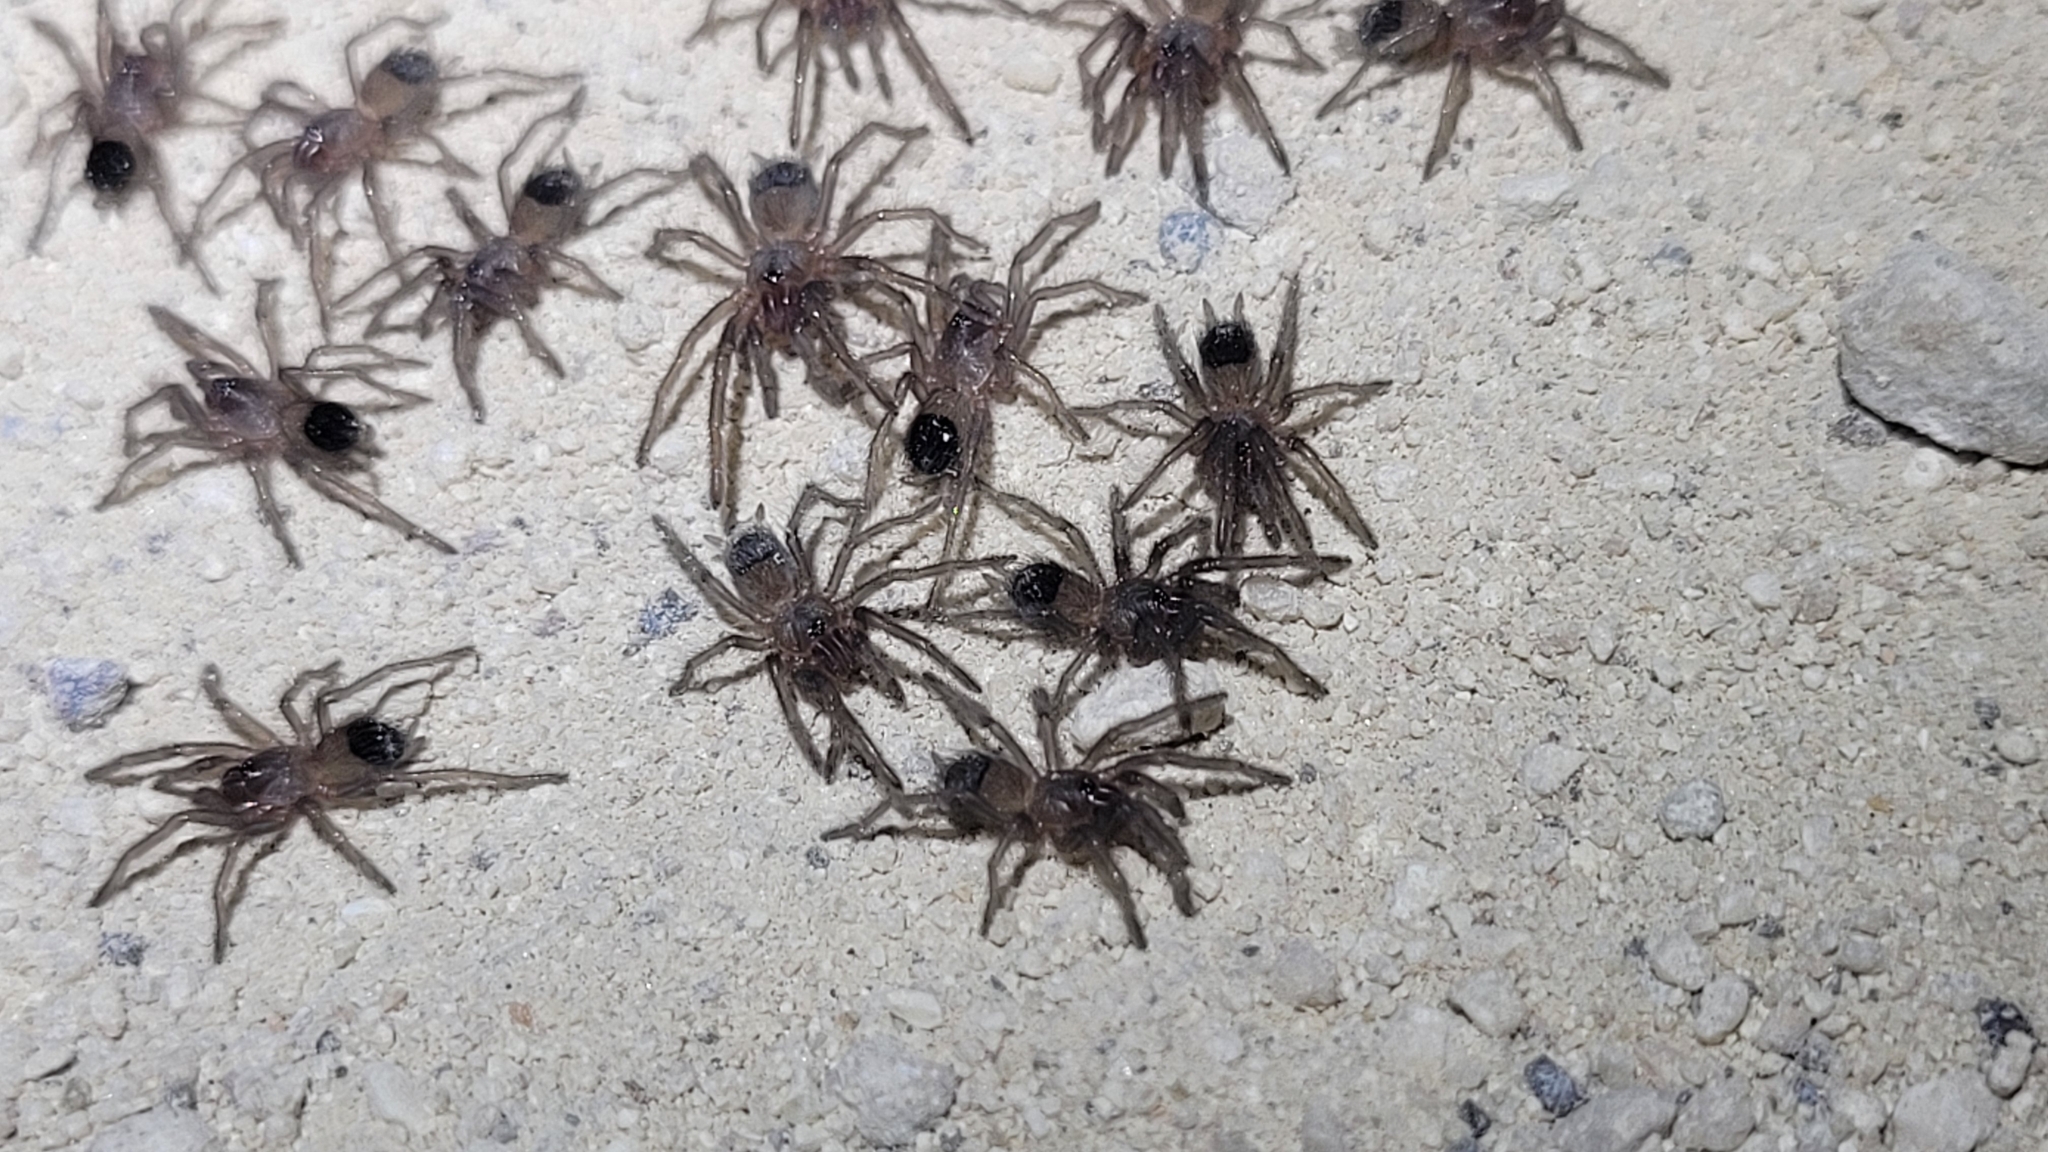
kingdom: Animalia
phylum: Arthropoda
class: Arachnida
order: Araneae
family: Theraphosidae
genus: Tliltocatl
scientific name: Tliltocatl albopilosus
